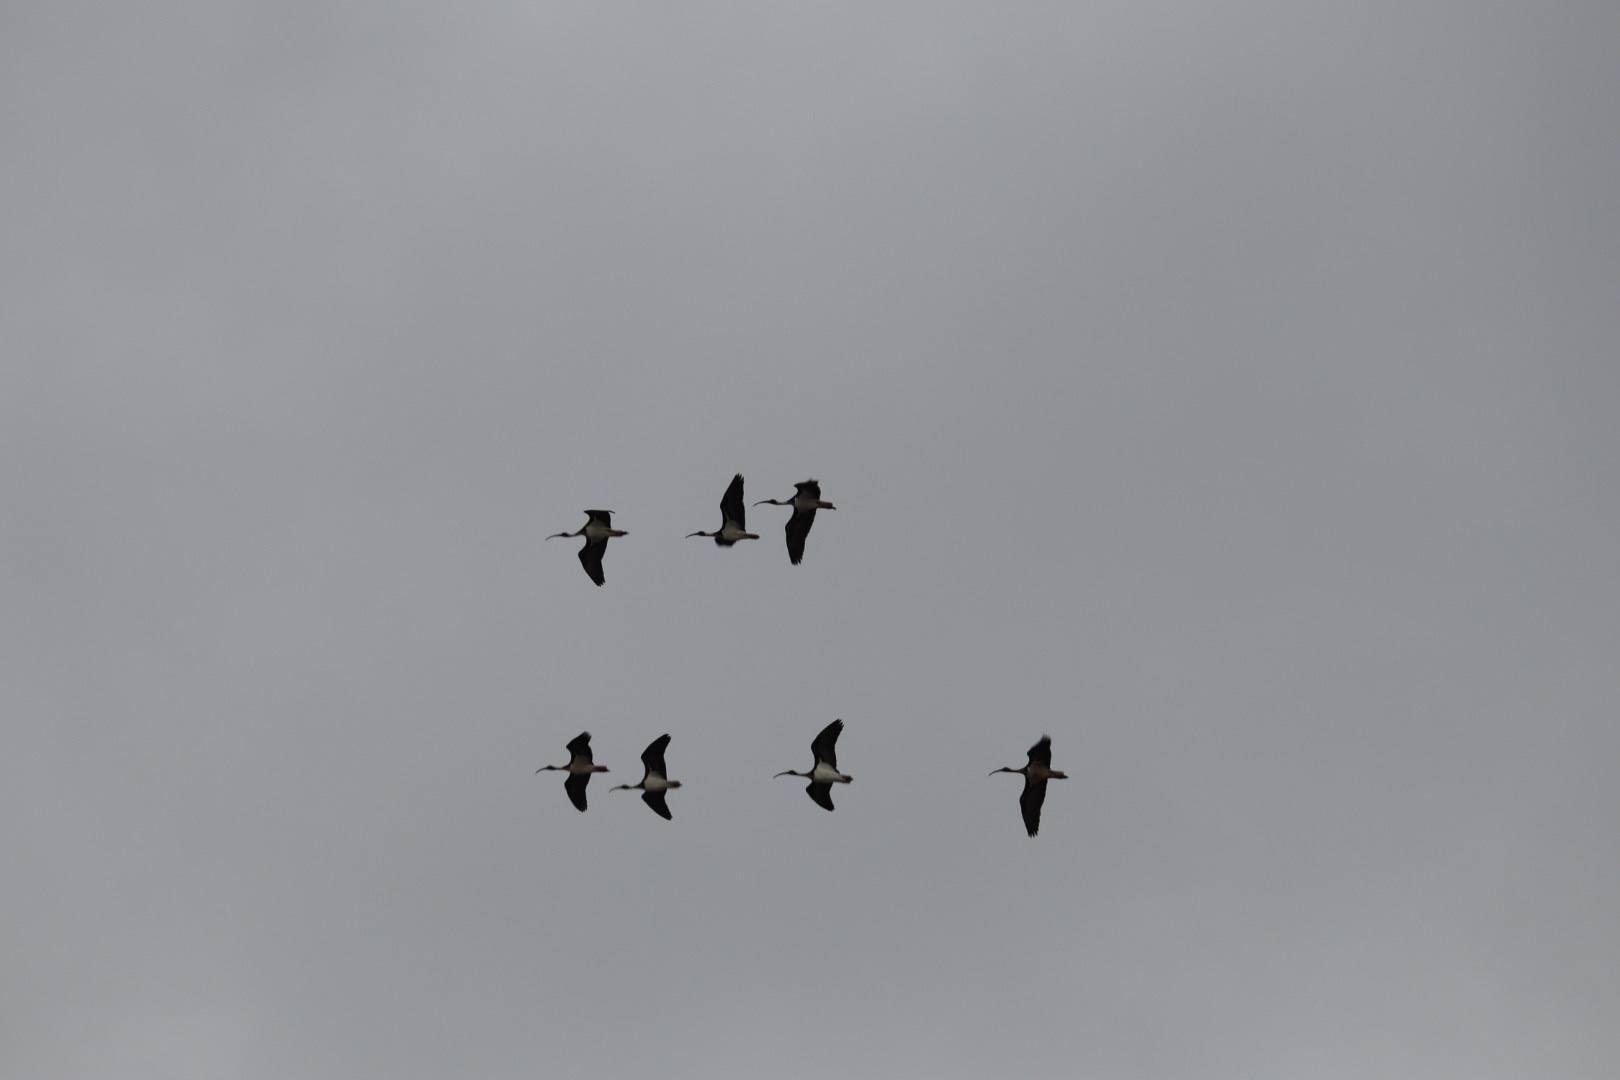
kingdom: Animalia
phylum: Chordata
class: Aves
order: Pelecaniformes
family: Threskiornithidae
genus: Threskiornis
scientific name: Threskiornis spinicollis
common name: Straw-necked ibis
